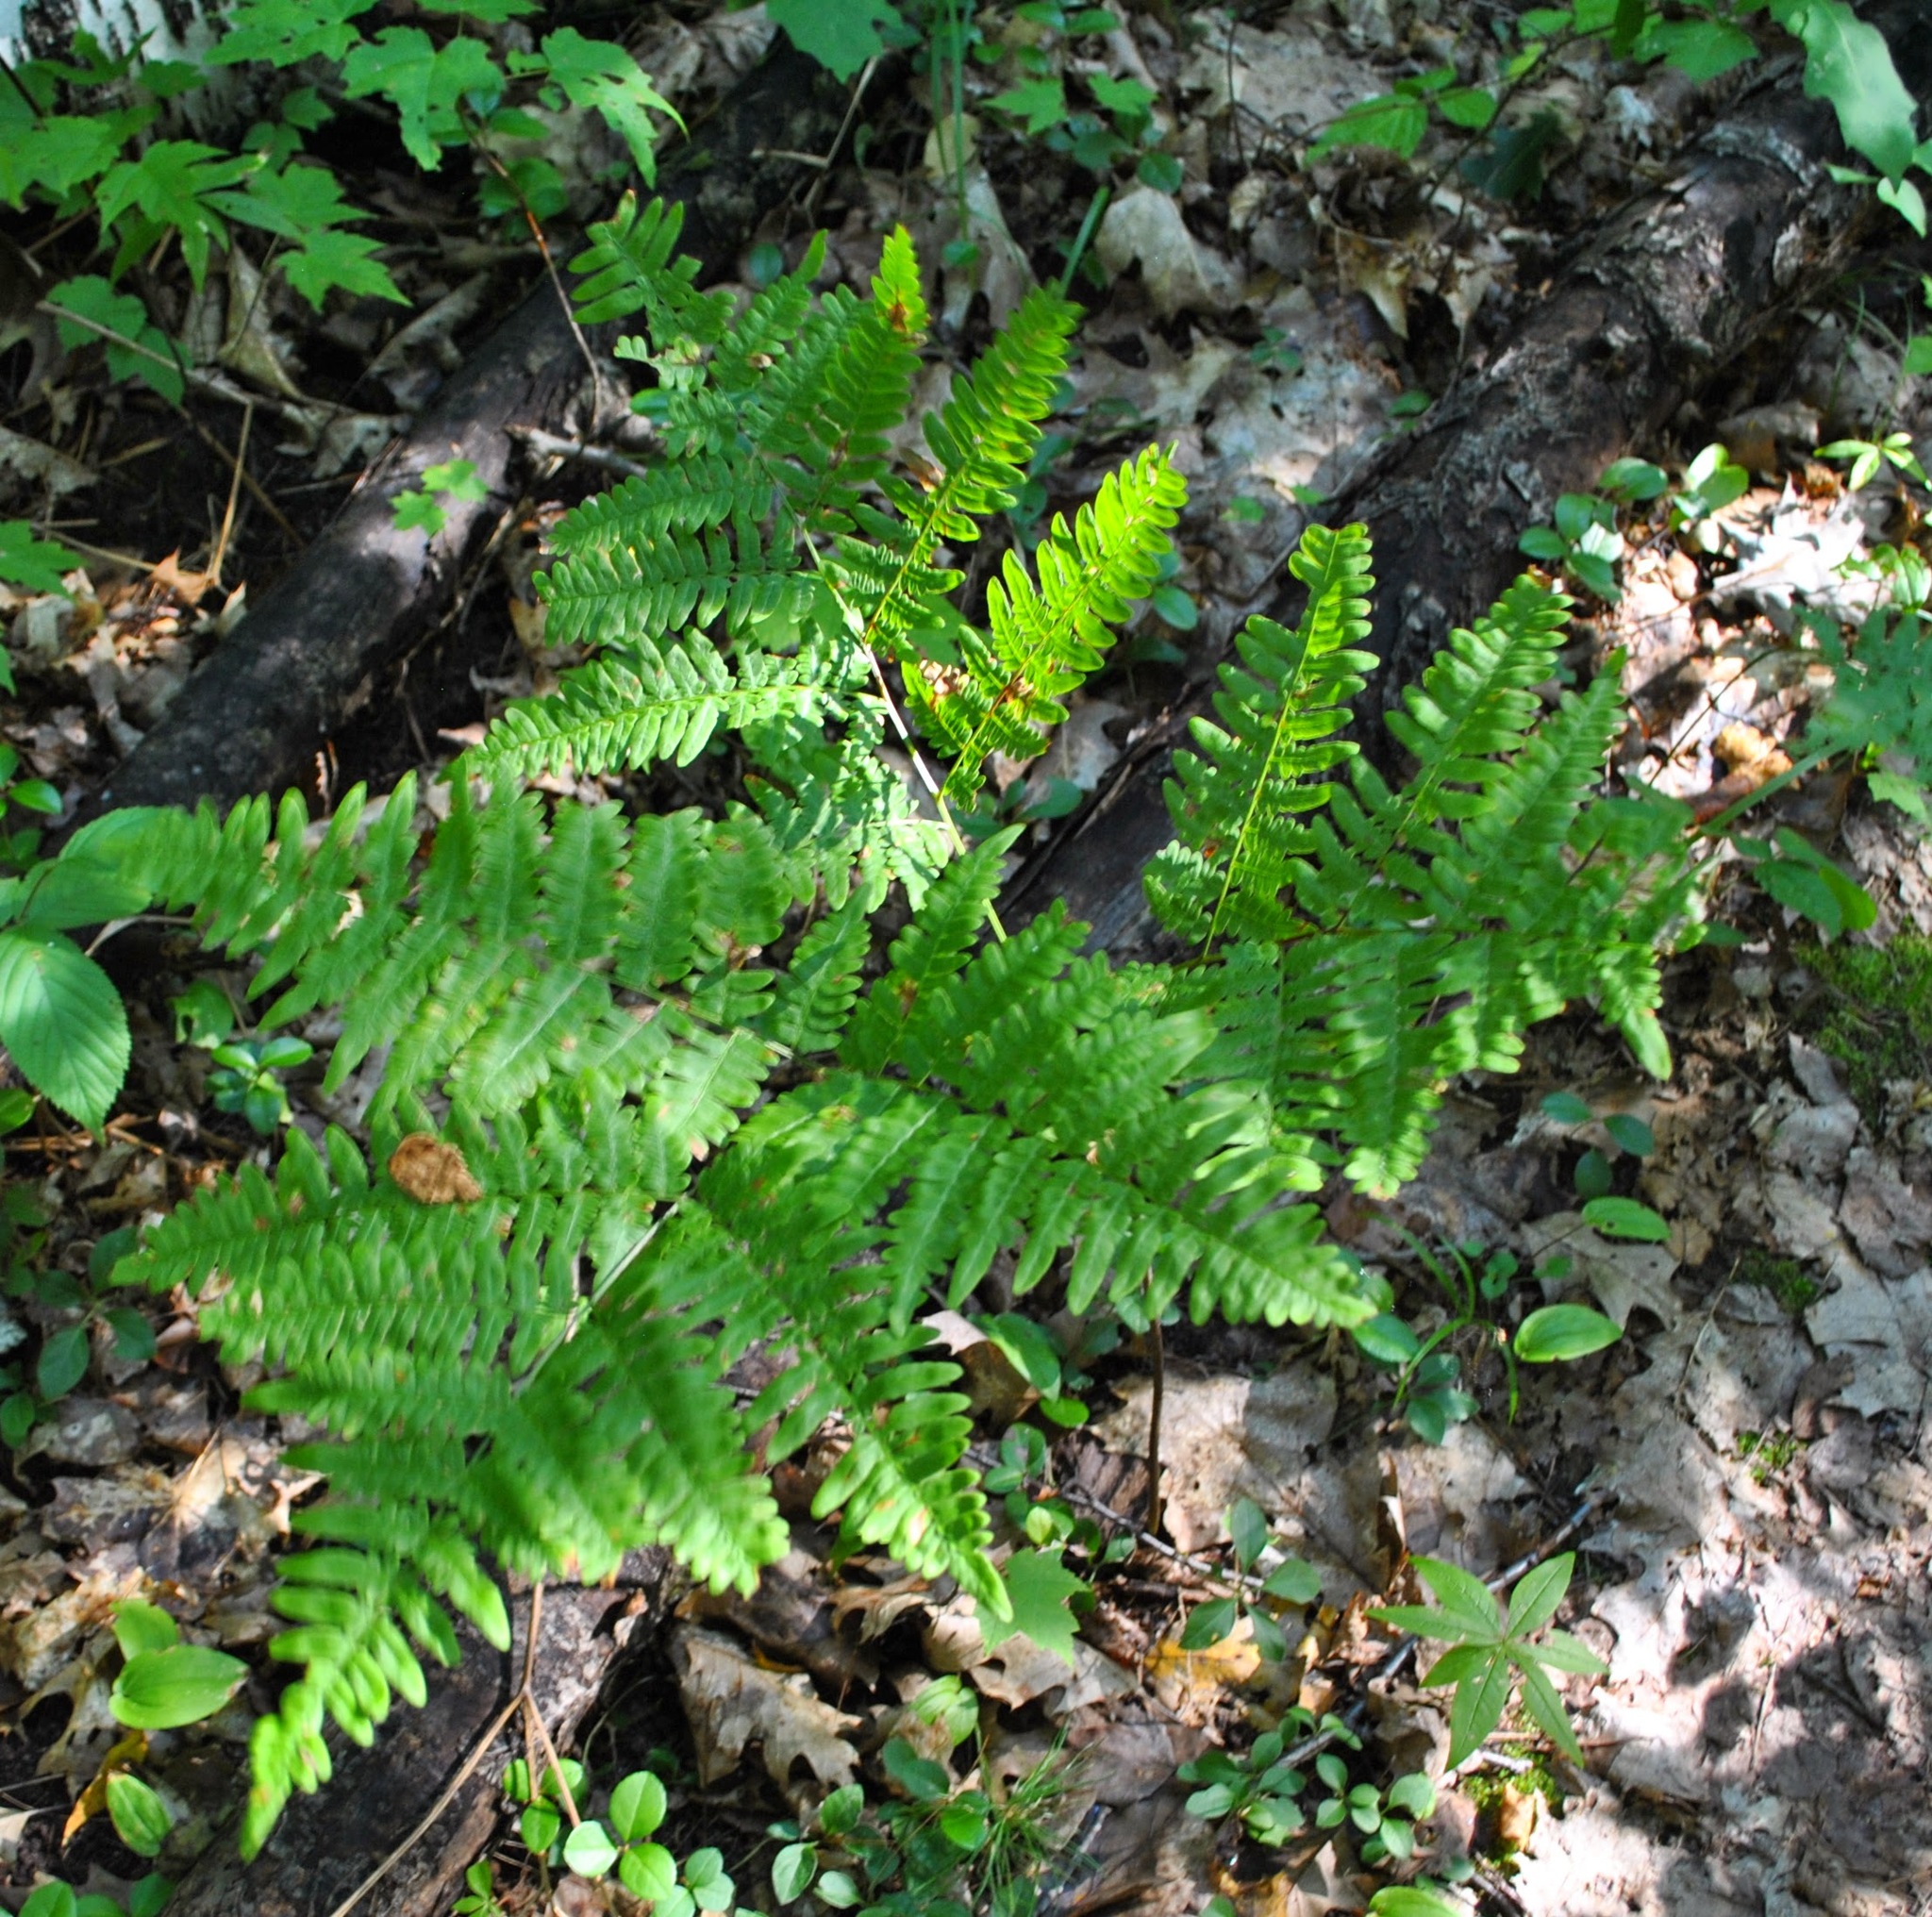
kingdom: Plantae
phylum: Tracheophyta
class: Polypodiopsida
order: Polypodiales
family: Dennstaedtiaceae
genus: Pteridium
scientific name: Pteridium aquilinum
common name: Bracken
